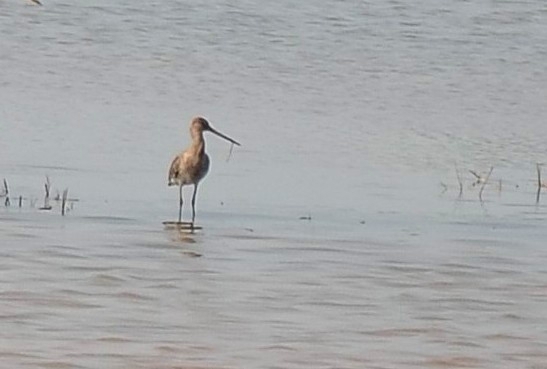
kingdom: Animalia
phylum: Chordata
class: Aves
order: Charadriiformes
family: Scolopacidae
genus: Limosa
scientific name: Limosa limosa
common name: Black-tailed godwit
